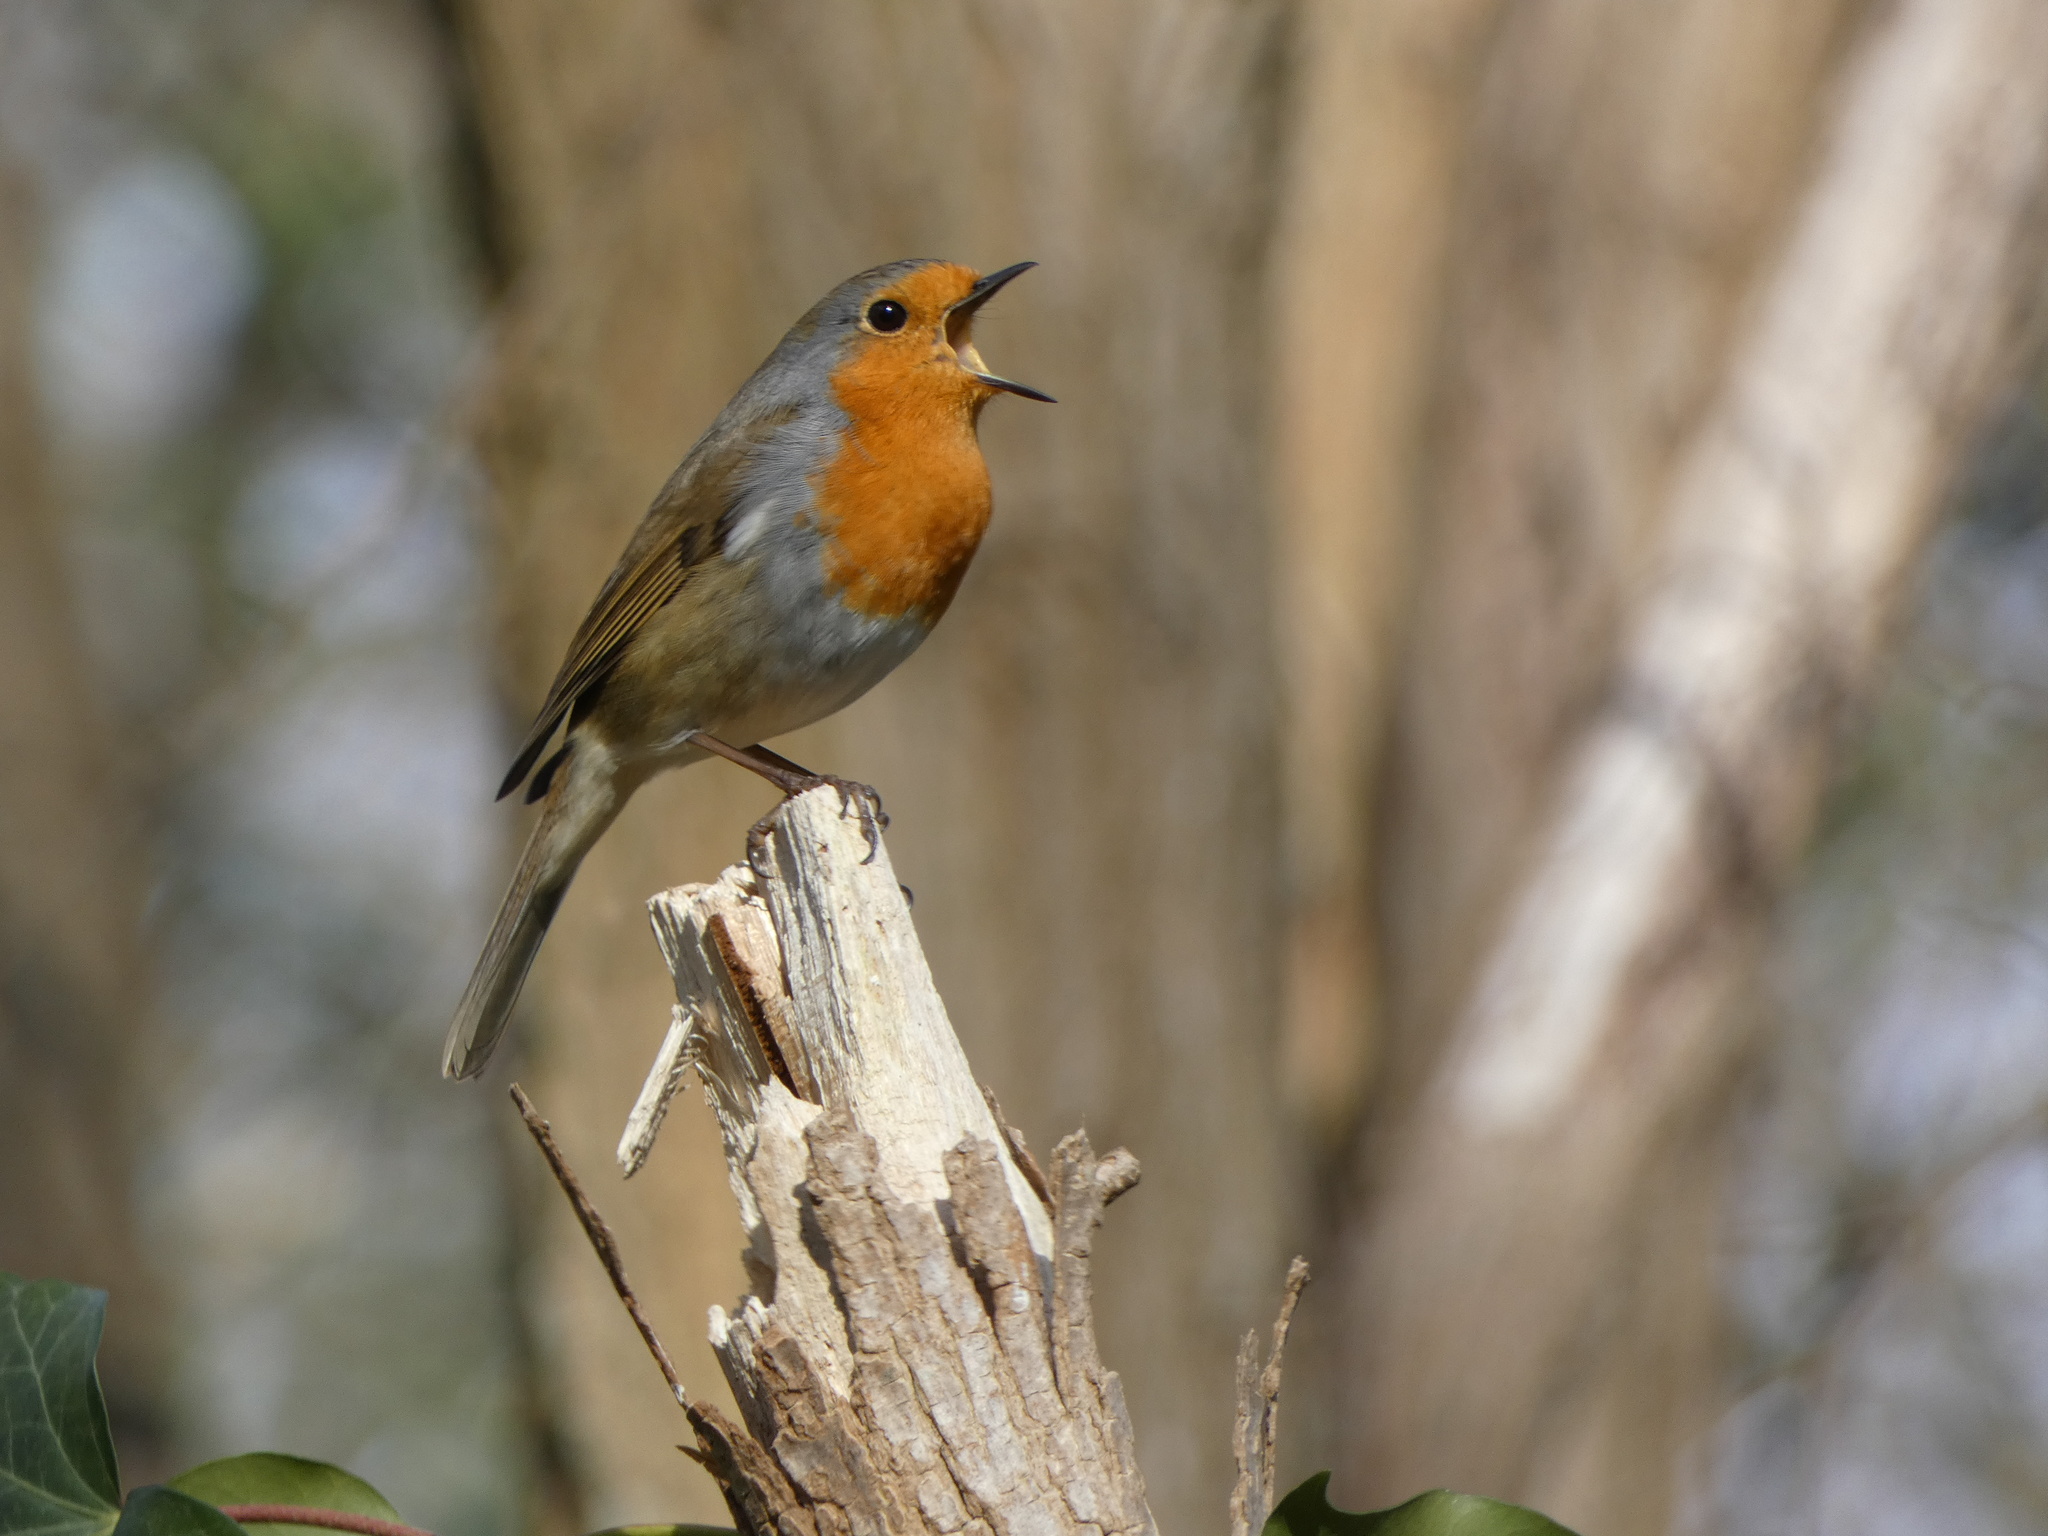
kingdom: Animalia
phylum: Chordata
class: Aves
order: Passeriformes
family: Muscicapidae
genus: Erithacus
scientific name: Erithacus rubecula
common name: European robin
